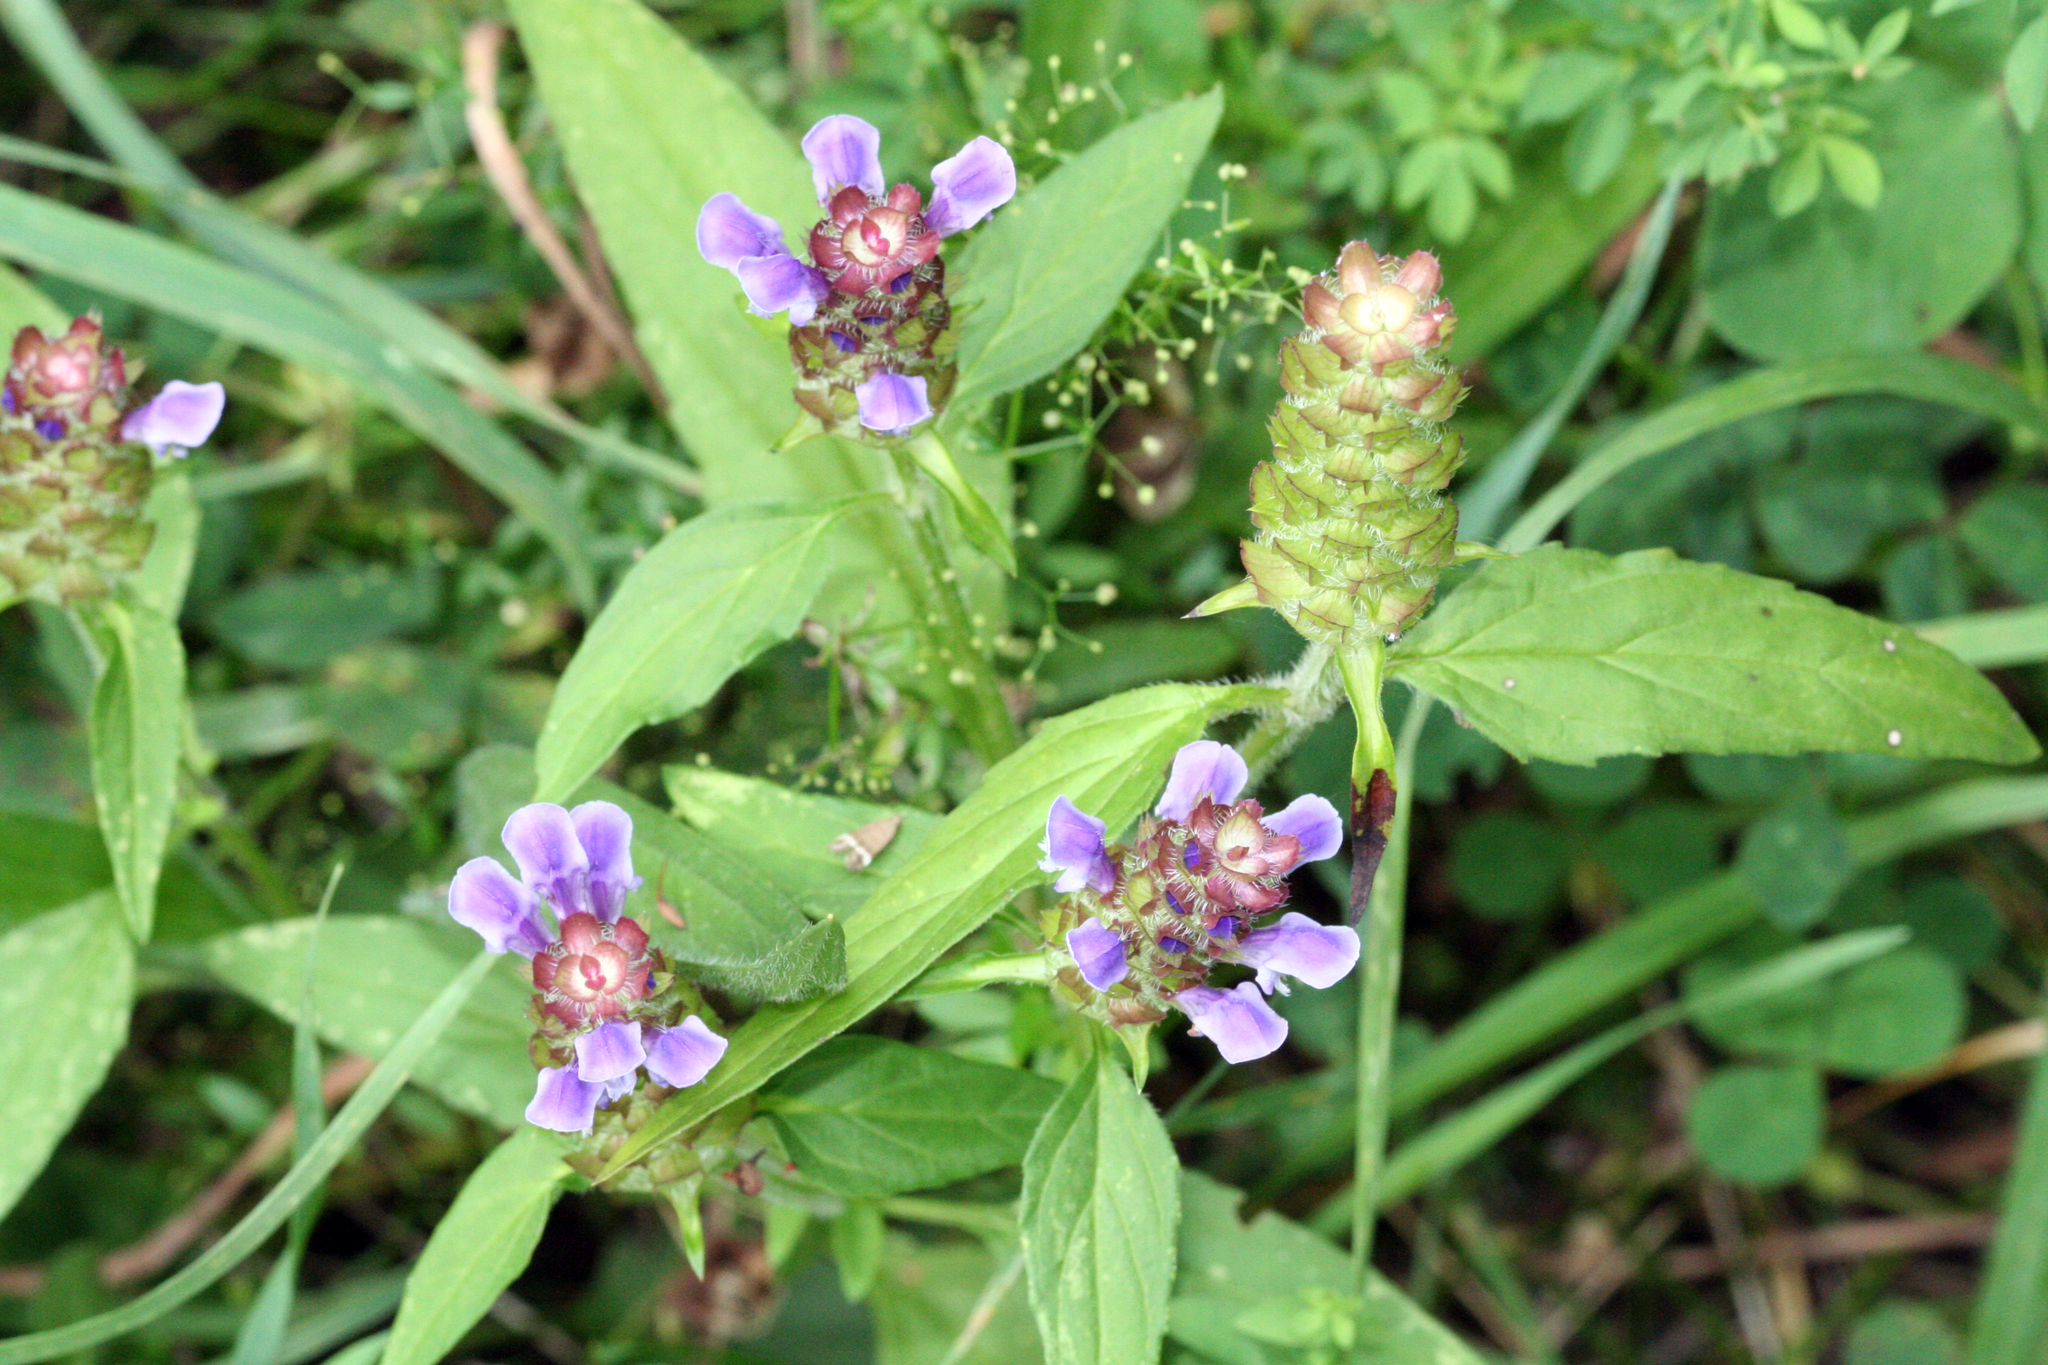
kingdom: Plantae
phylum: Tracheophyta
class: Magnoliopsida
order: Lamiales
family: Lamiaceae
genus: Prunella
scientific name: Prunella vulgaris
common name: Heal-all
